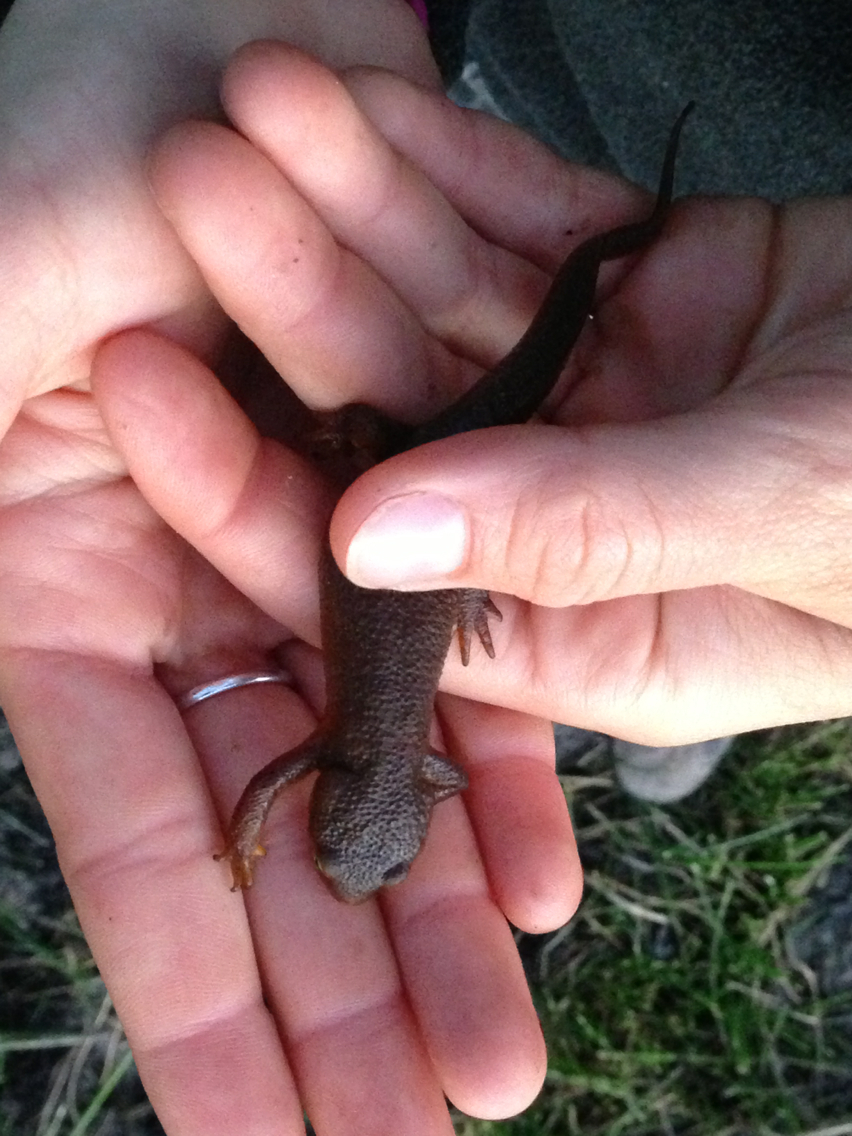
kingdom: Animalia
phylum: Chordata
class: Amphibia
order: Caudata
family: Salamandridae
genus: Taricha
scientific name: Taricha granulosa
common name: Roughskin newt
